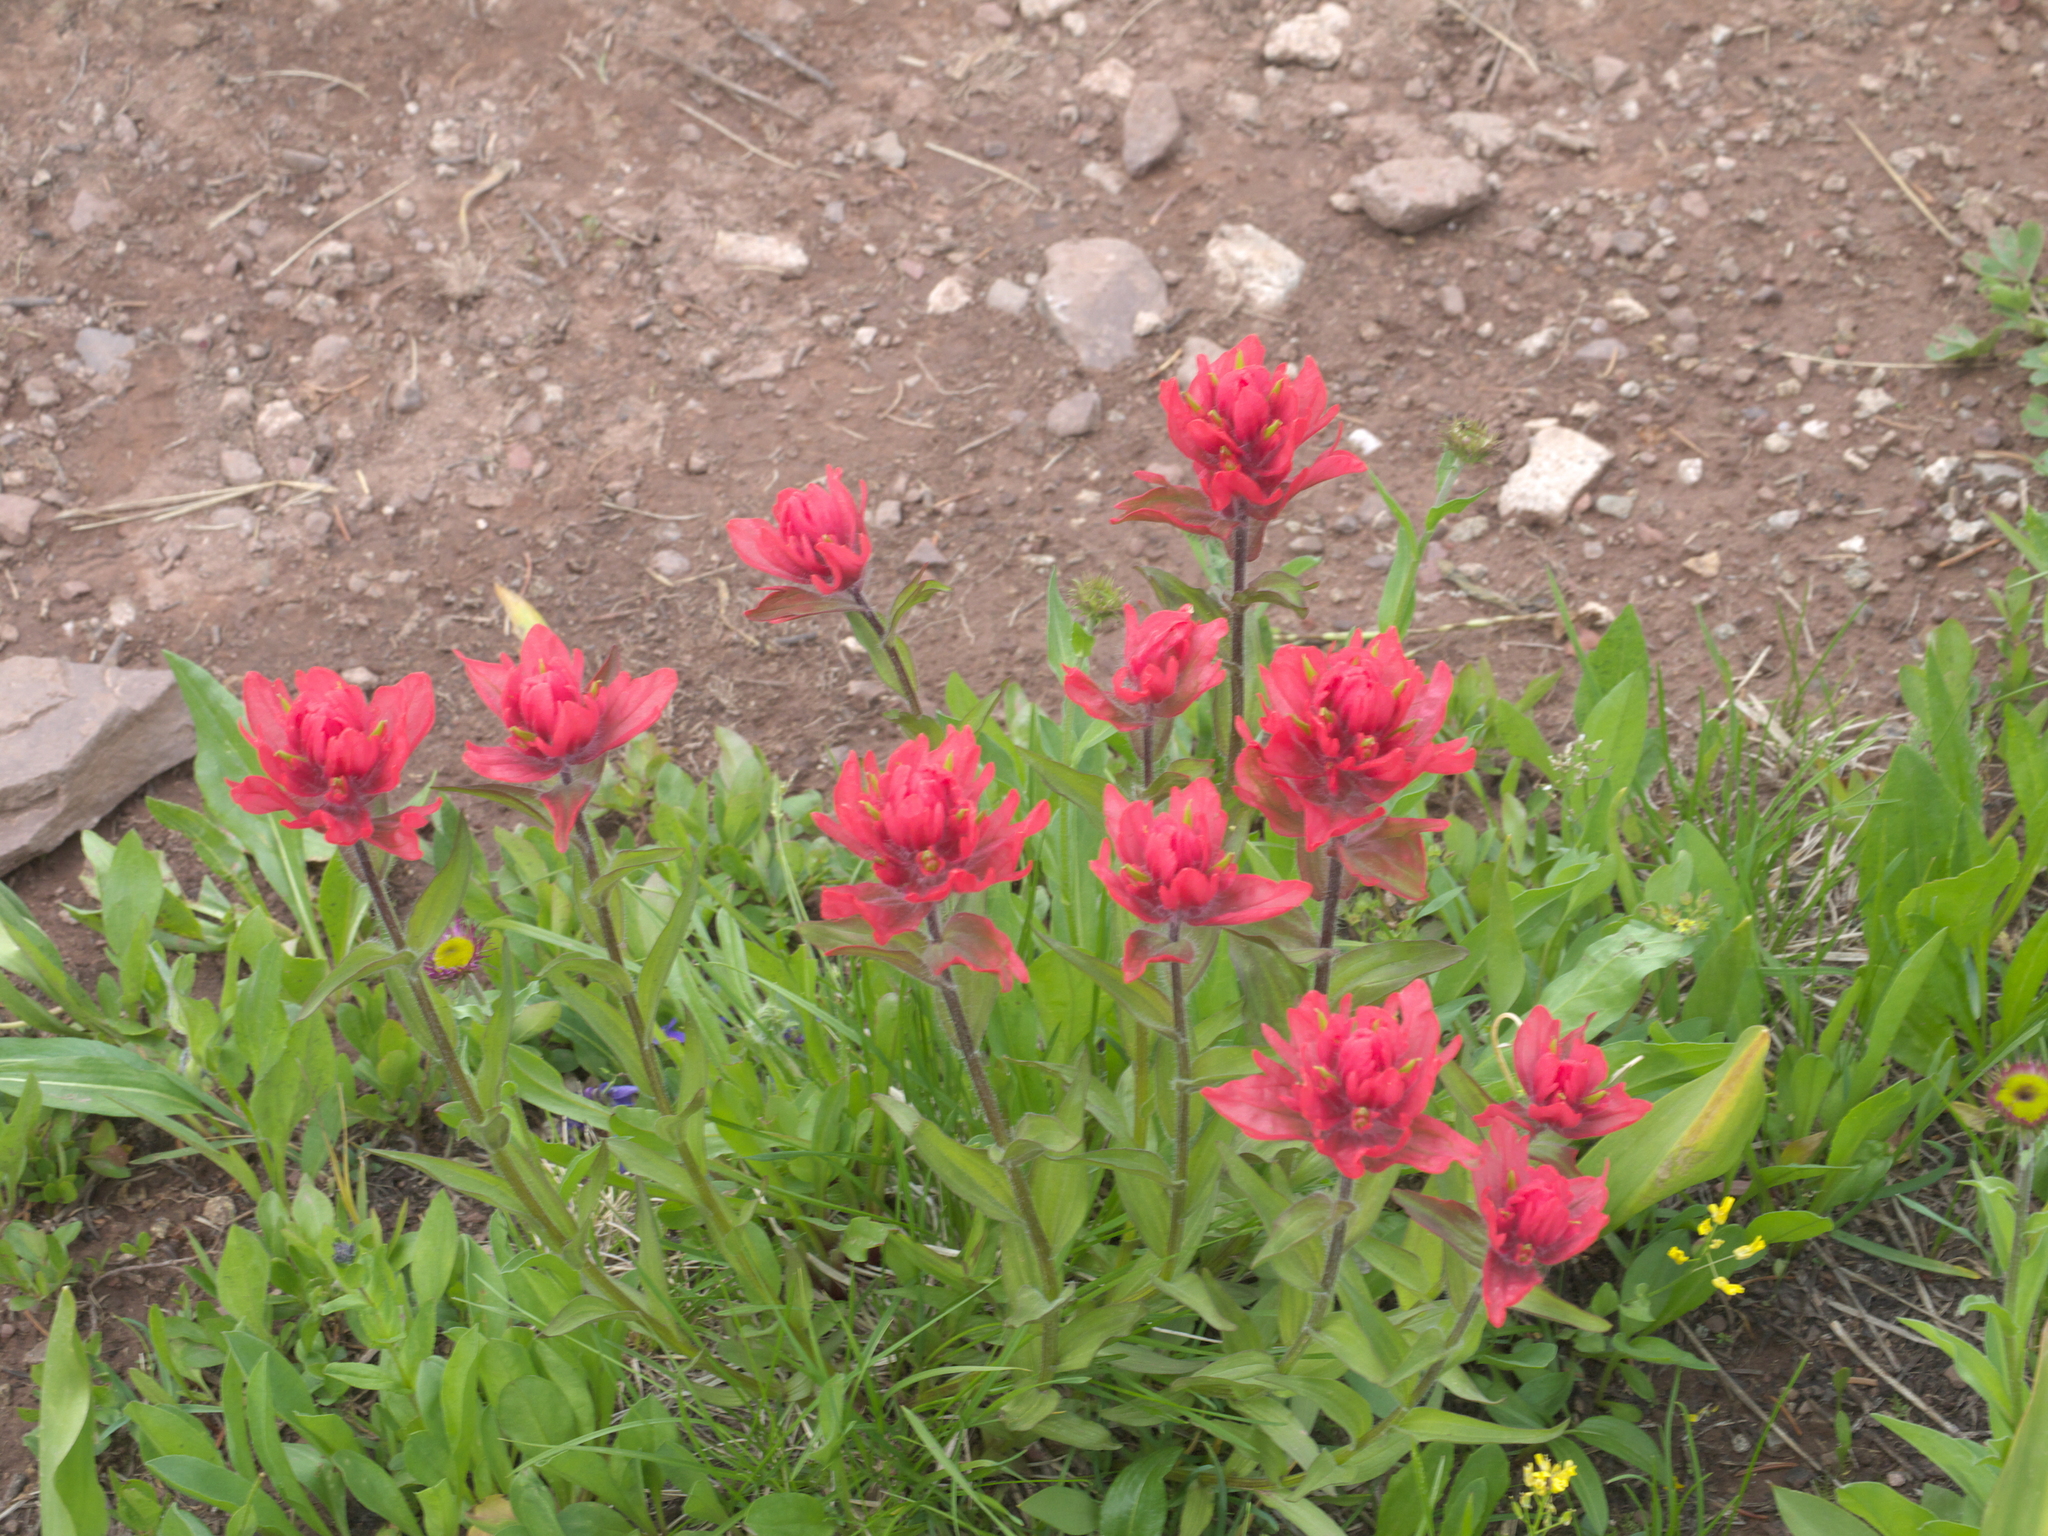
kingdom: Plantae
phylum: Tracheophyta
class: Magnoliopsida
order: Lamiales
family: Orobanchaceae
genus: Castilleja
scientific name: Castilleja rhexifolia
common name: Rocky mountain paintbrush
